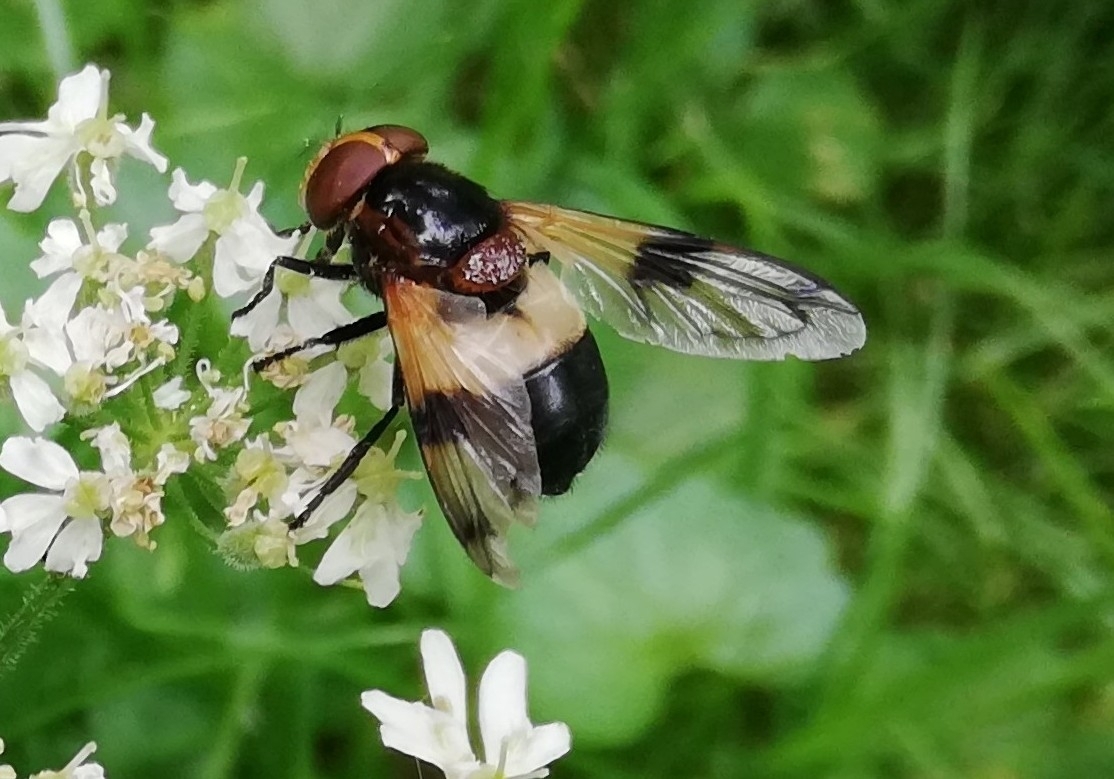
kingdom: Animalia
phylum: Arthropoda
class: Insecta
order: Diptera
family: Syrphidae
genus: Volucella
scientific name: Volucella pellucens
